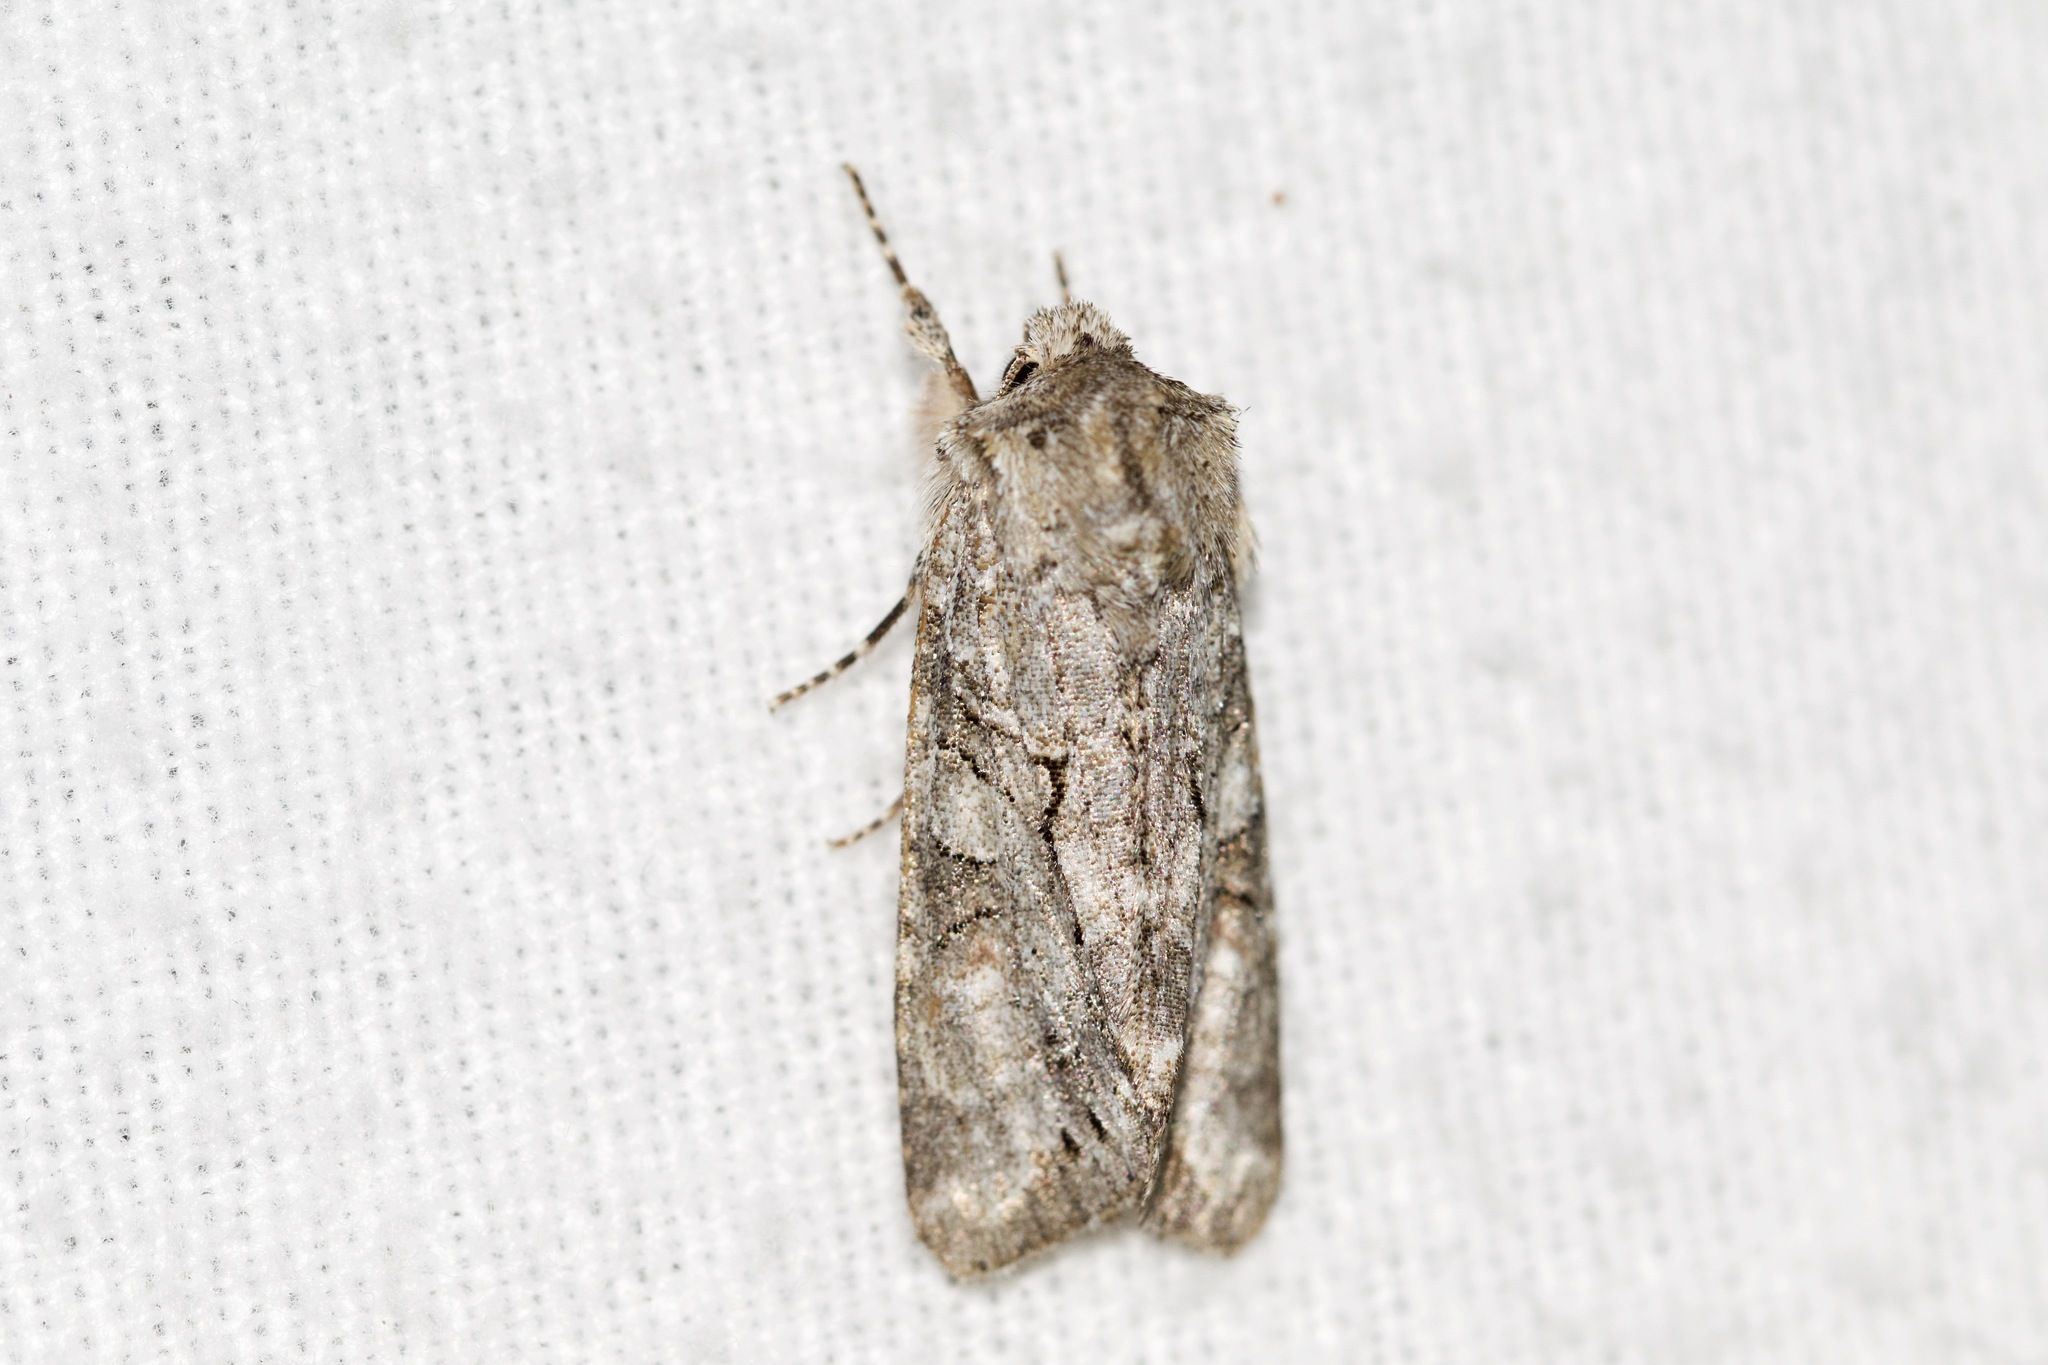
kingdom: Animalia
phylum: Arthropoda
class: Insecta
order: Lepidoptera
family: Noctuidae
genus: Achatia
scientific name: Achatia distincta
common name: Distinct quaker
